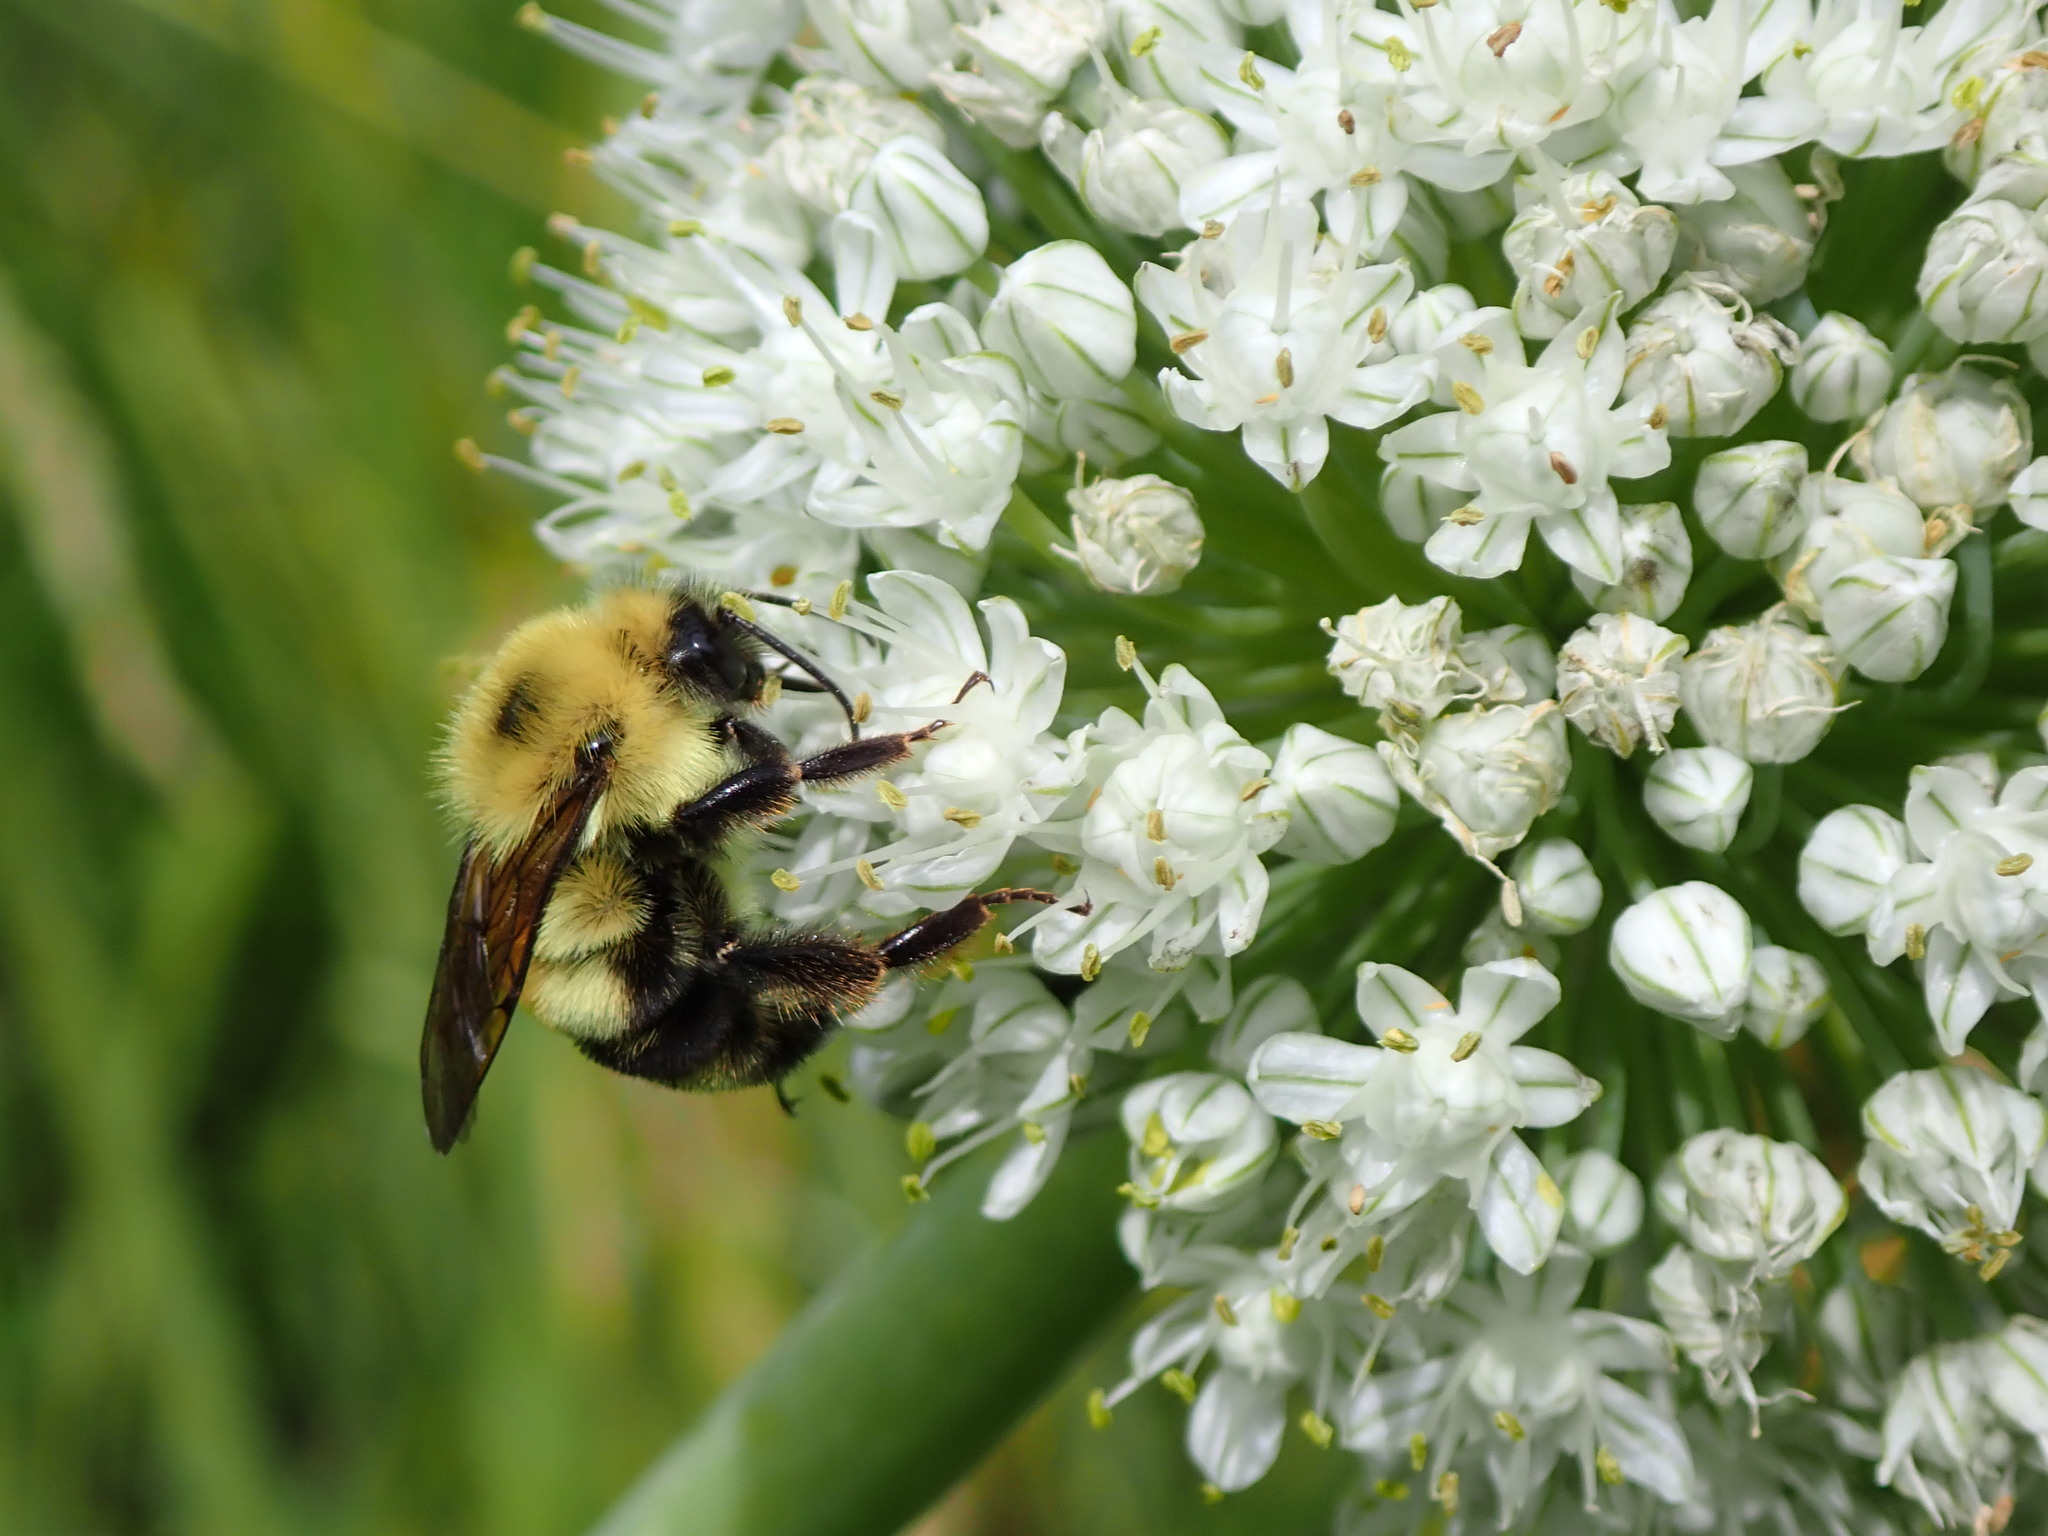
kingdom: Animalia
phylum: Arthropoda
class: Insecta
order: Hymenoptera
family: Apidae
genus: Bombus
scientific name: Bombus bimaculatus
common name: Two-spotted bumble bee
